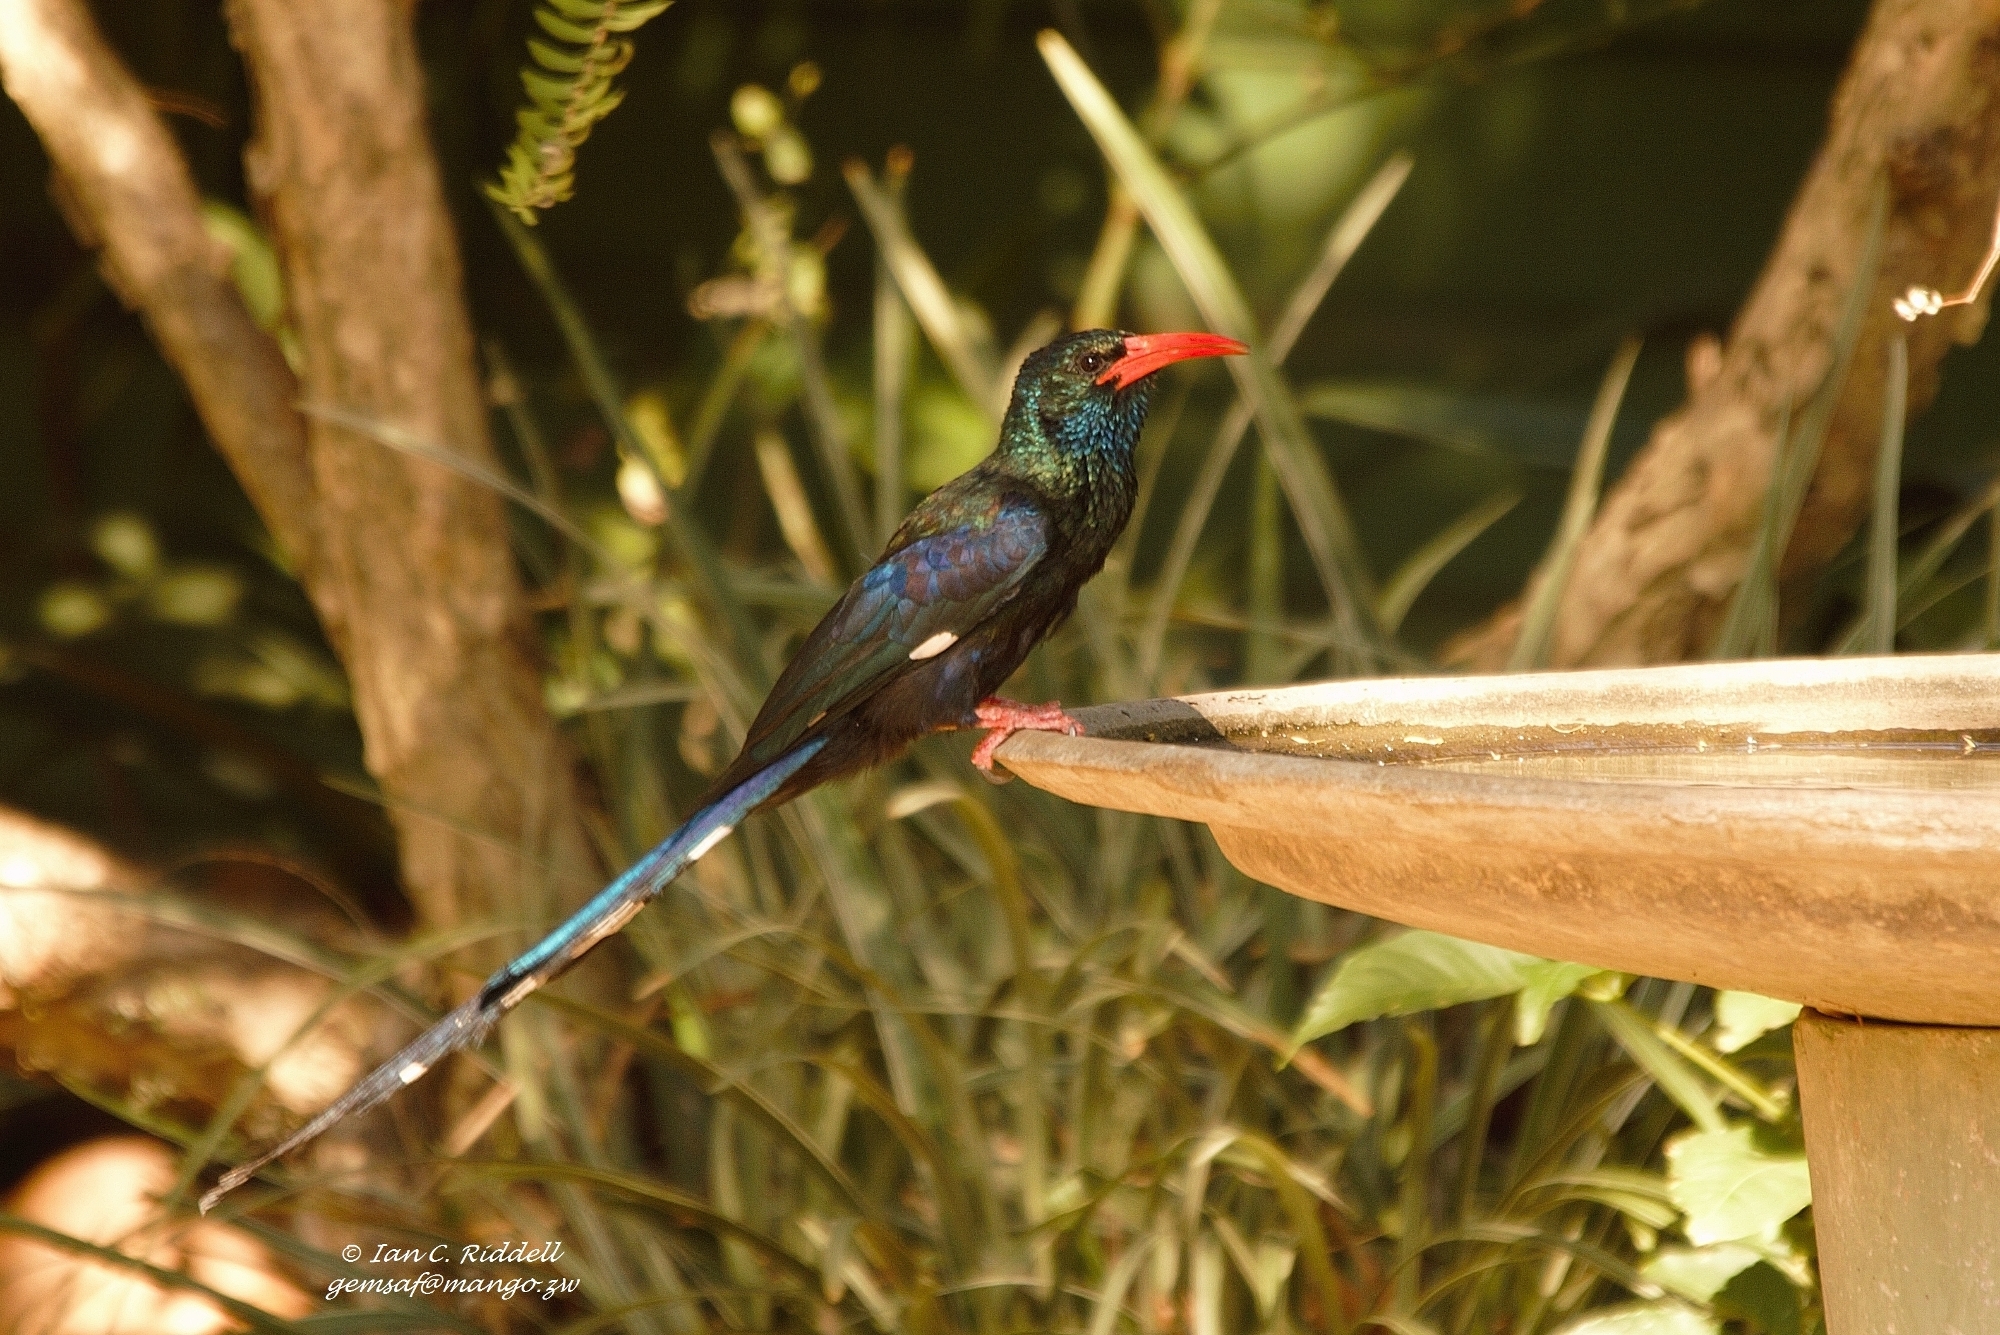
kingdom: Animalia
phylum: Chordata
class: Aves
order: Bucerotiformes
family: Phoeniculidae
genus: Phoeniculus
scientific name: Phoeniculus purpureus
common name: Green woodhoopoe
